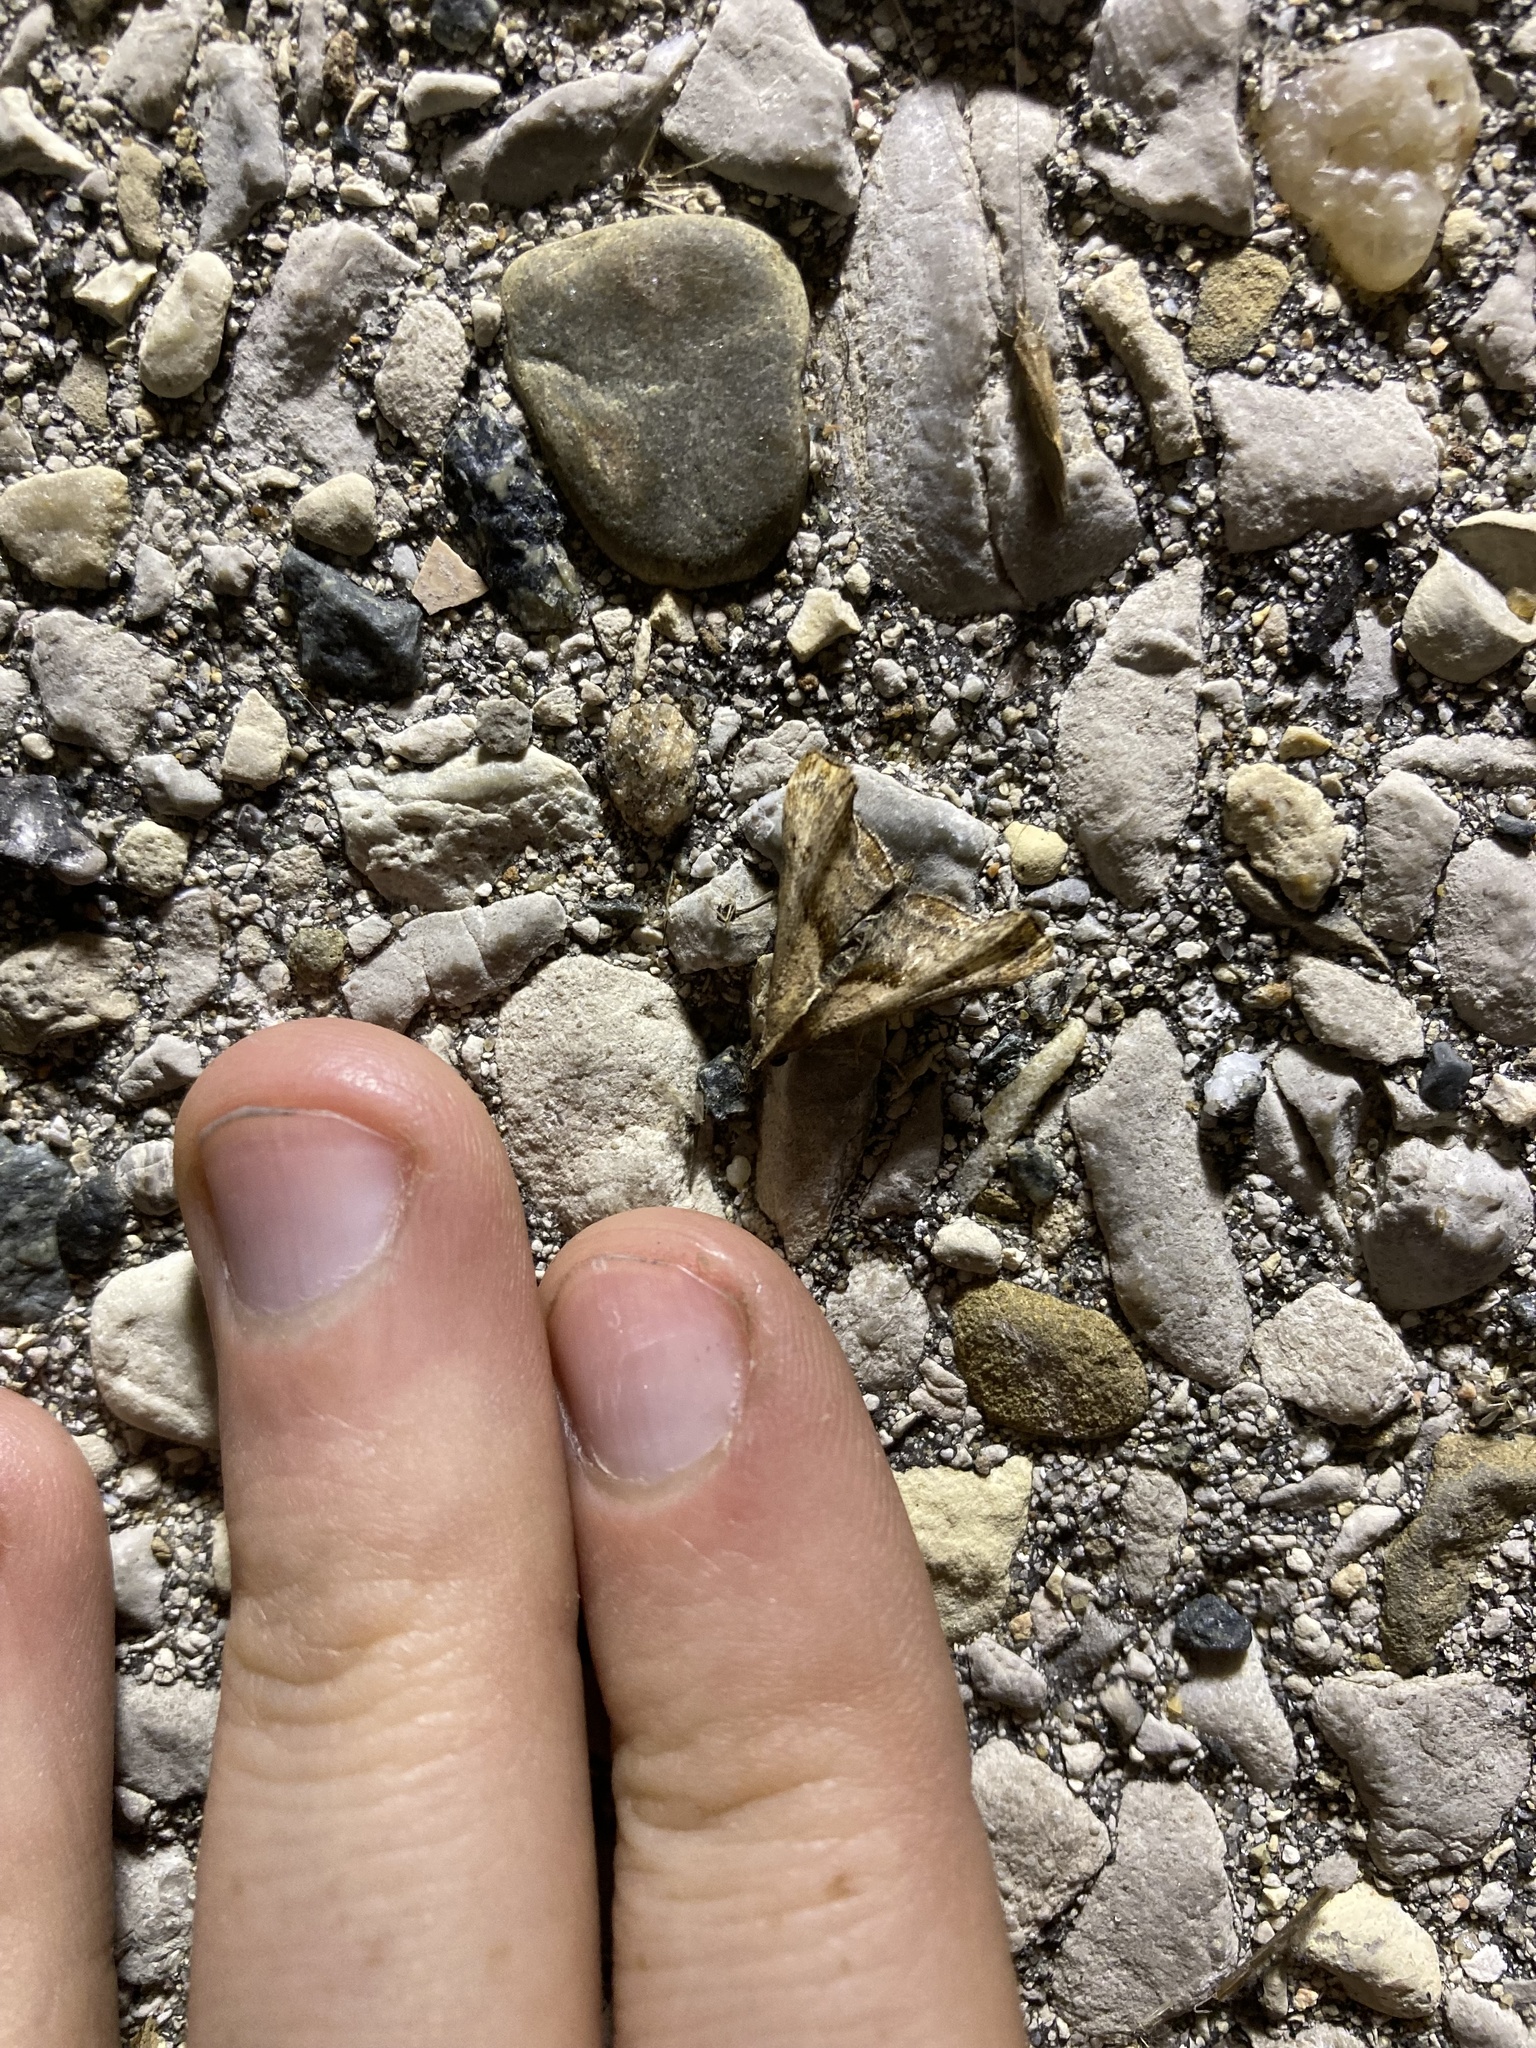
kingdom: Animalia
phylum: Arthropoda
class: Insecta
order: Lepidoptera
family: Erebidae
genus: Palthis
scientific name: Palthis angulalis
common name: Dark-spotted palthis moth
